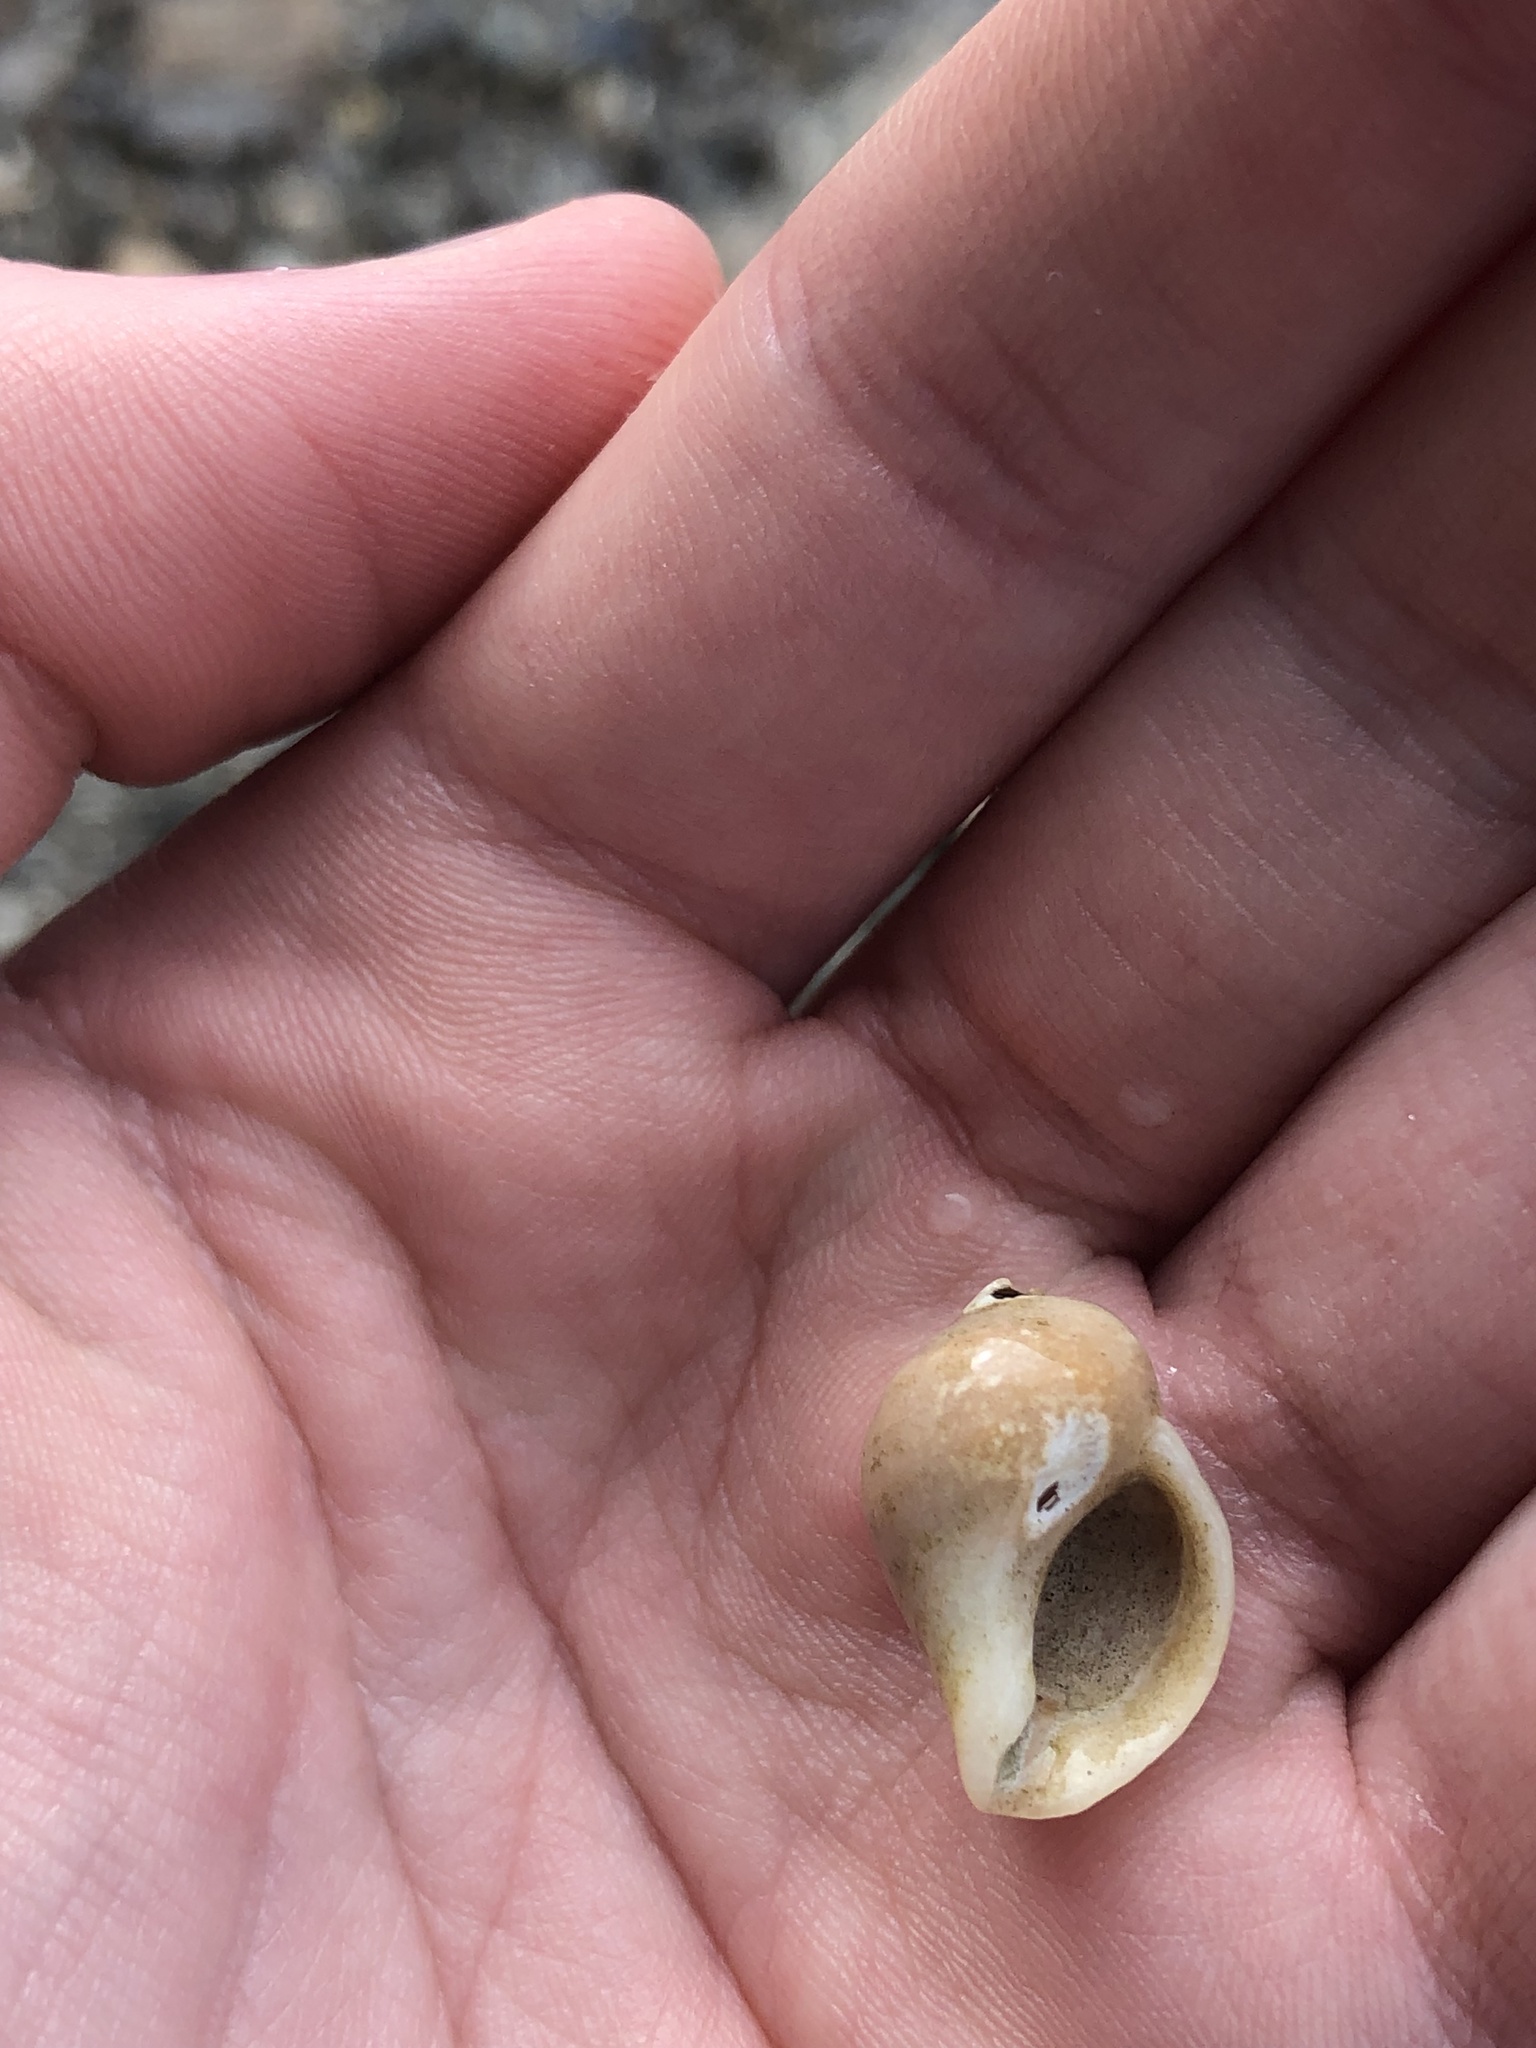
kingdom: Animalia
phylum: Mollusca
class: Gastropoda
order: Neogastropoda
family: Muricidae
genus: Nucella
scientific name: Nucella lapillus
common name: Dog whelk
